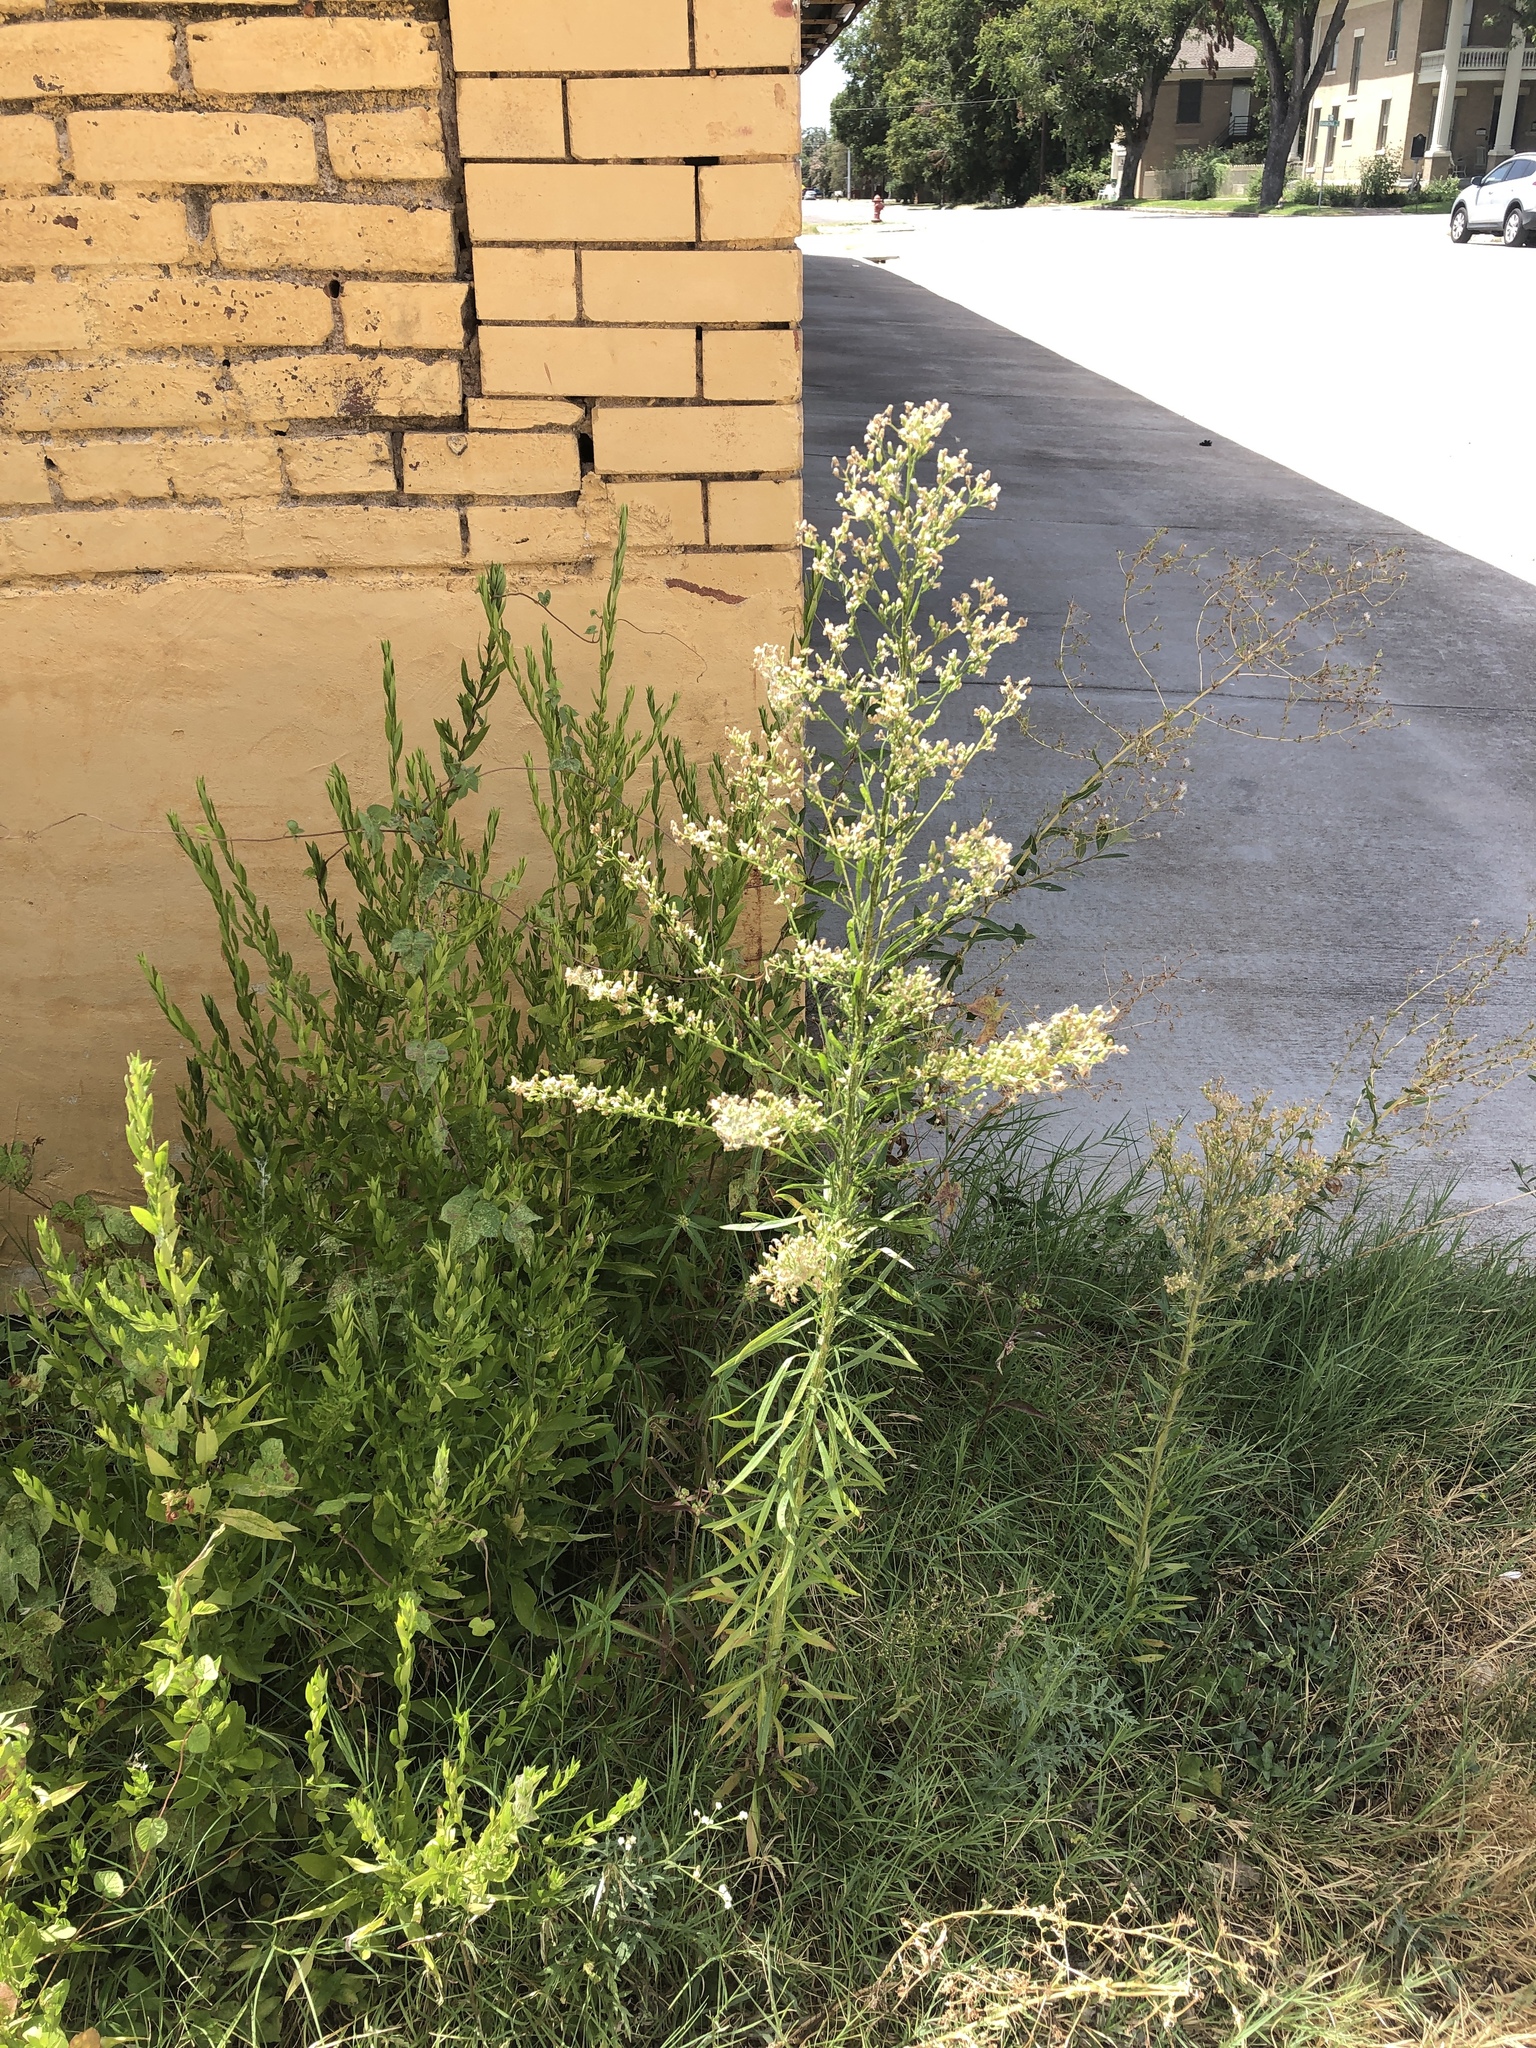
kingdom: Plantae
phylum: Tracheophyta
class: Magnoliopsida
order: Asterales
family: Asteraceae
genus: Erigeron
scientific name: Erigeron canadensis
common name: Canadian fleabane
